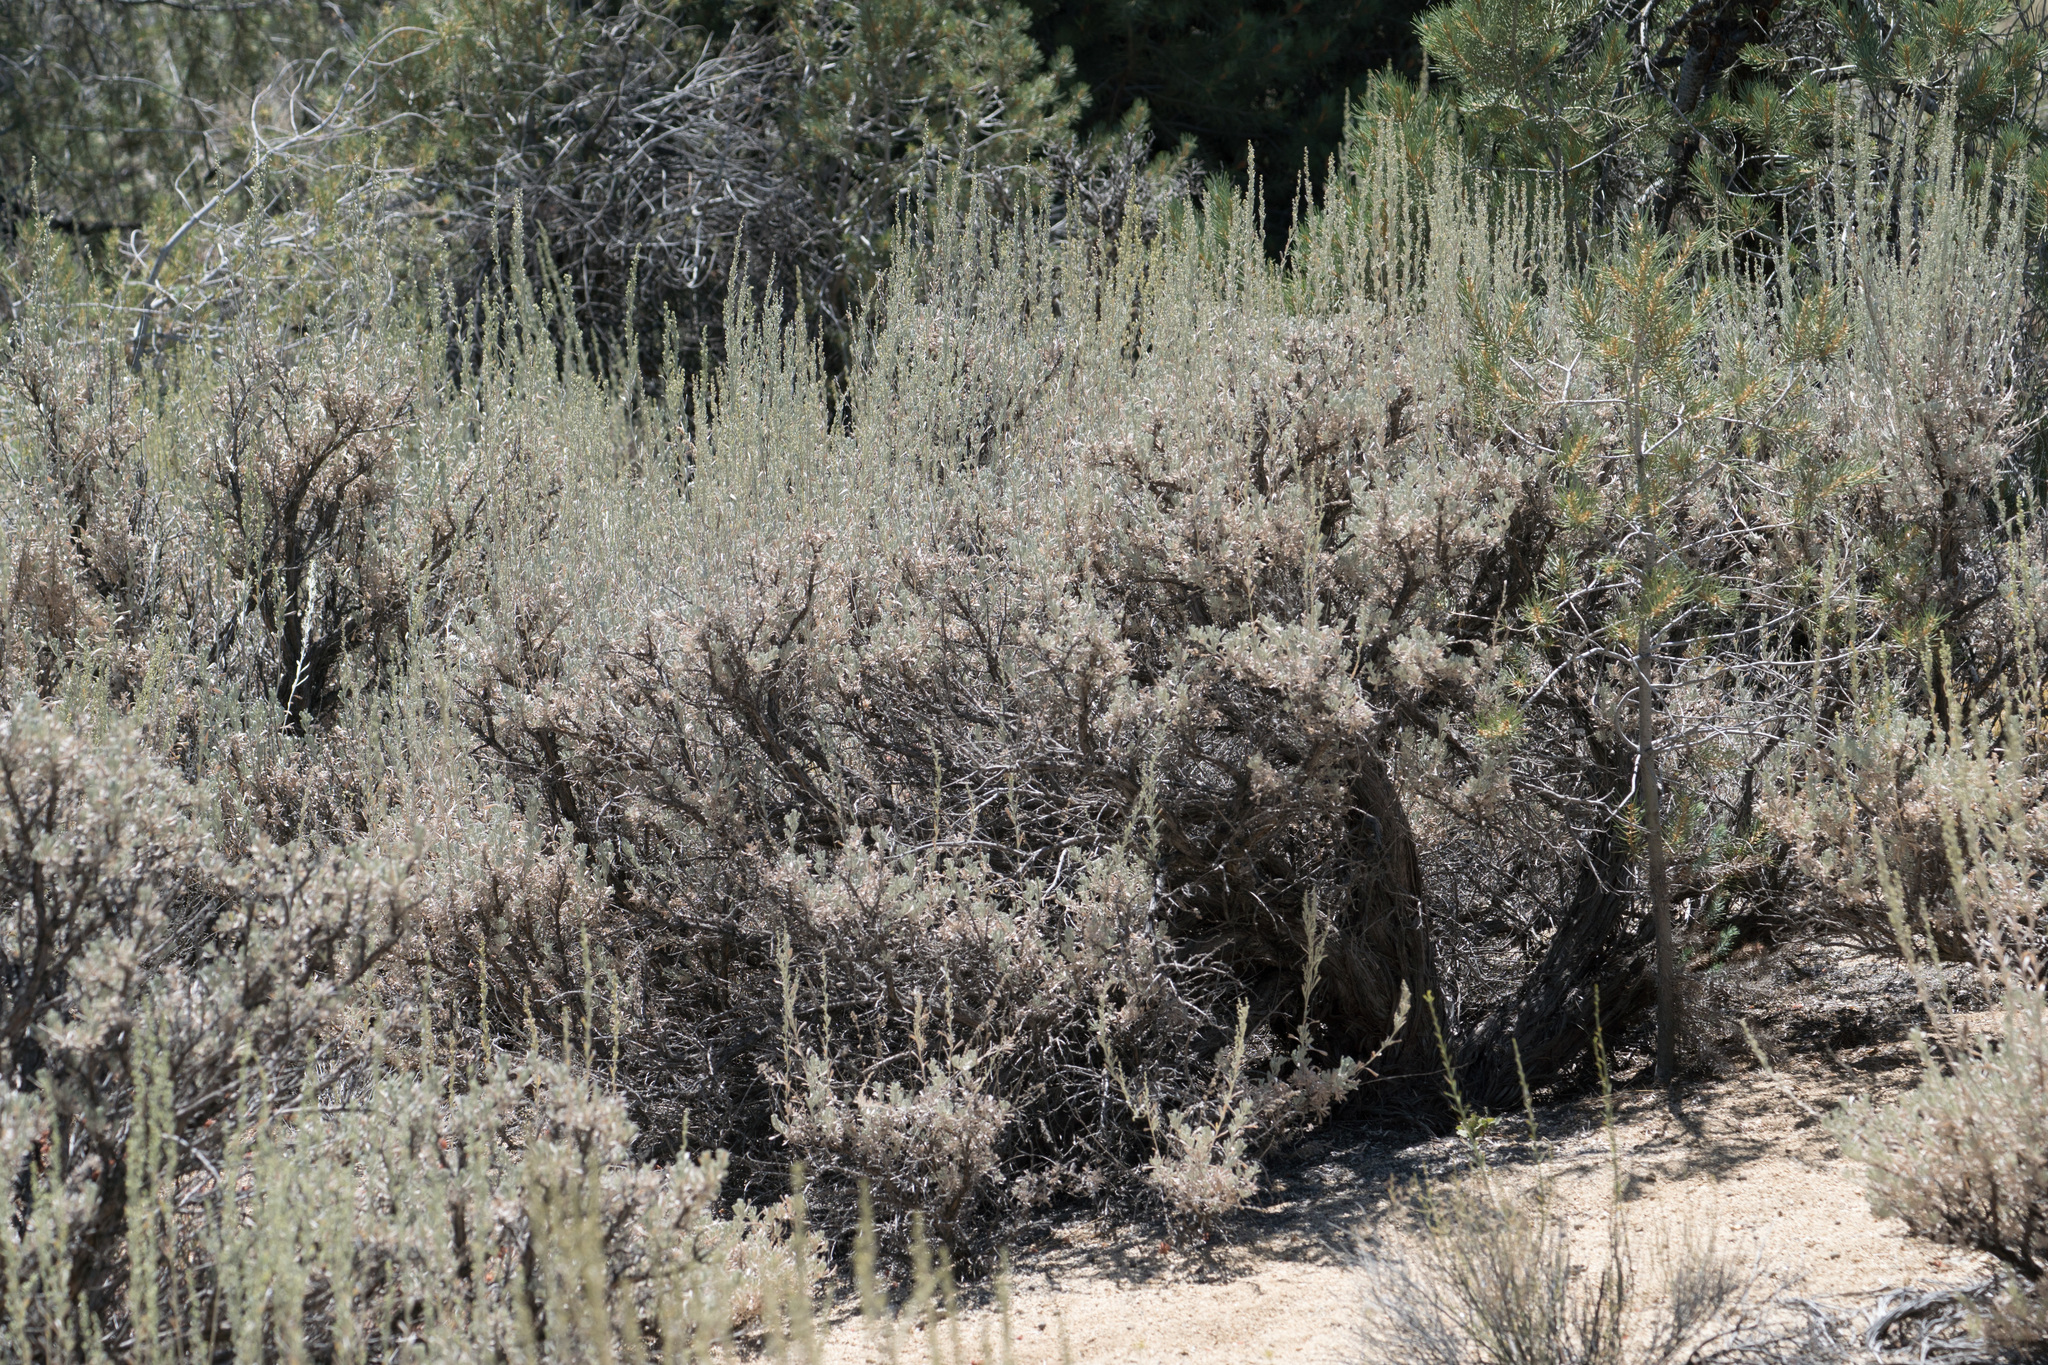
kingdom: Plantae
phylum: Tracheophyta
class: Magnoliopsida
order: Asterales
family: Asteraceae
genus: Artemisia
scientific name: Artemisia tridentata
